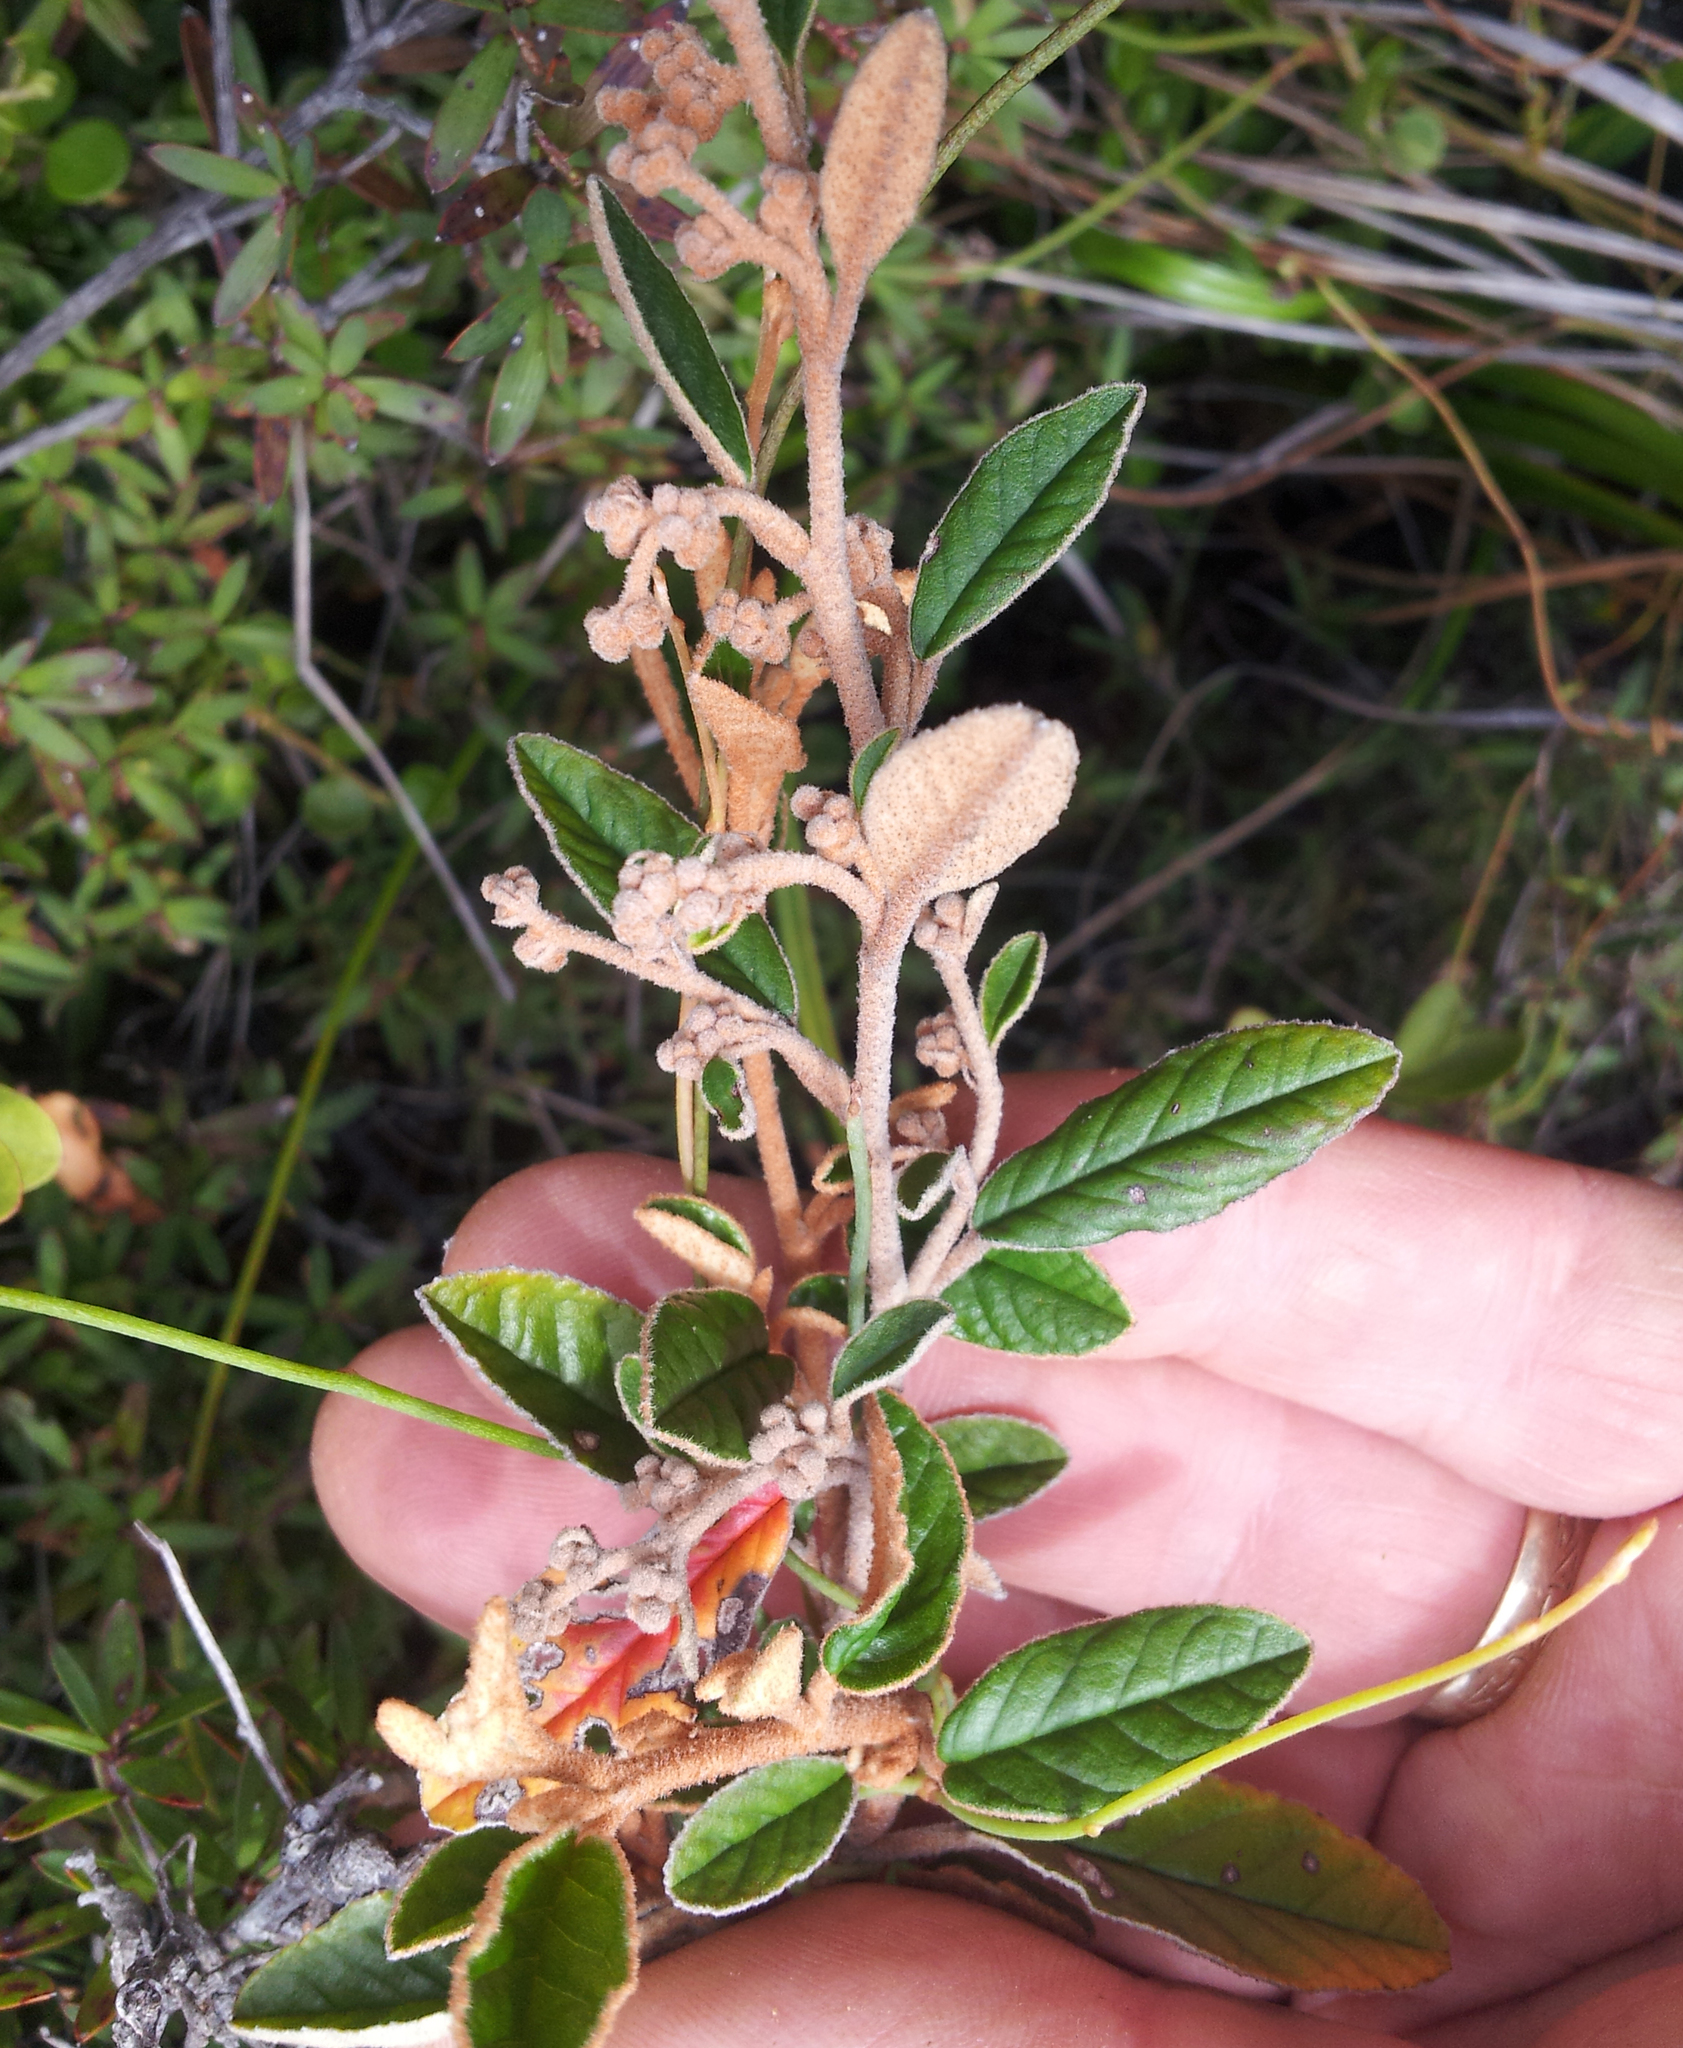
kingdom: Plantae
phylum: Tracheophyta
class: Magnoliopsida
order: Rosales
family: Rhamnaceae
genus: Pomaderris
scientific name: Pomaderris paniculosa
